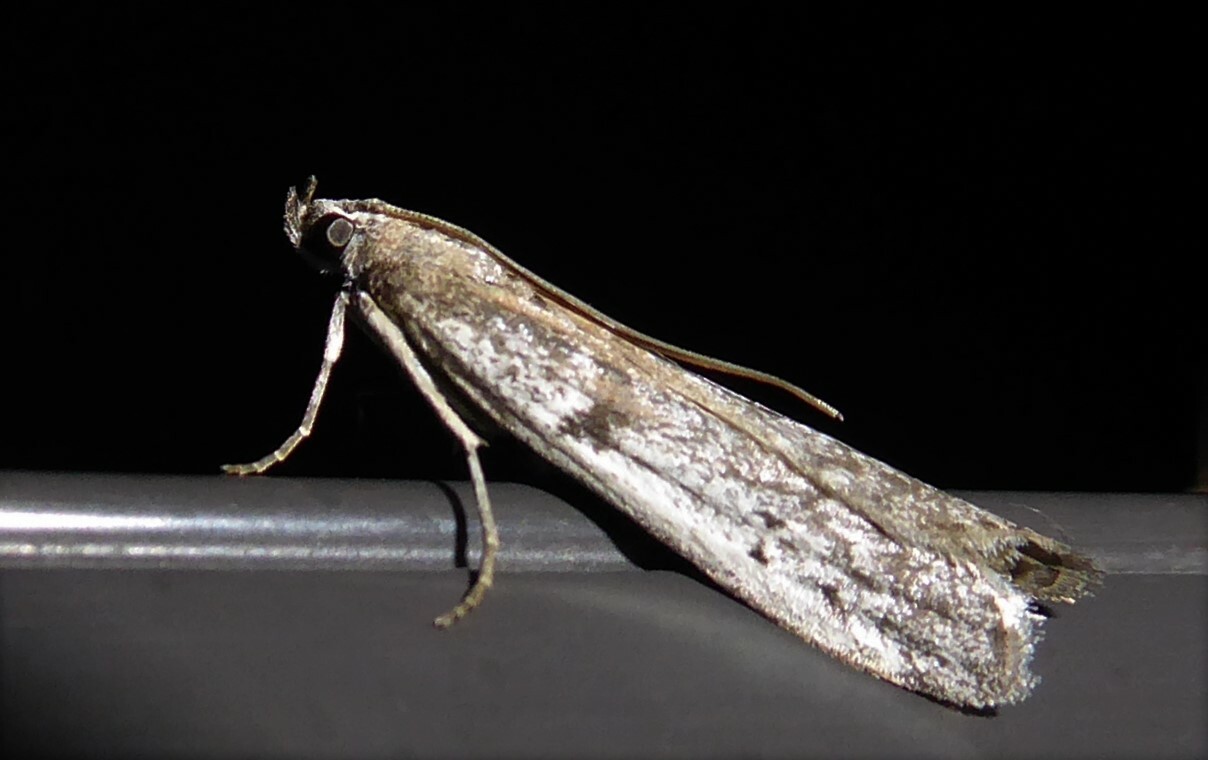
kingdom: Animalia
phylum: Arthropoda
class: Insecta
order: Lepidoptera
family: Pyralidae
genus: Patagoniodes
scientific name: Patagoniodes farinaria
